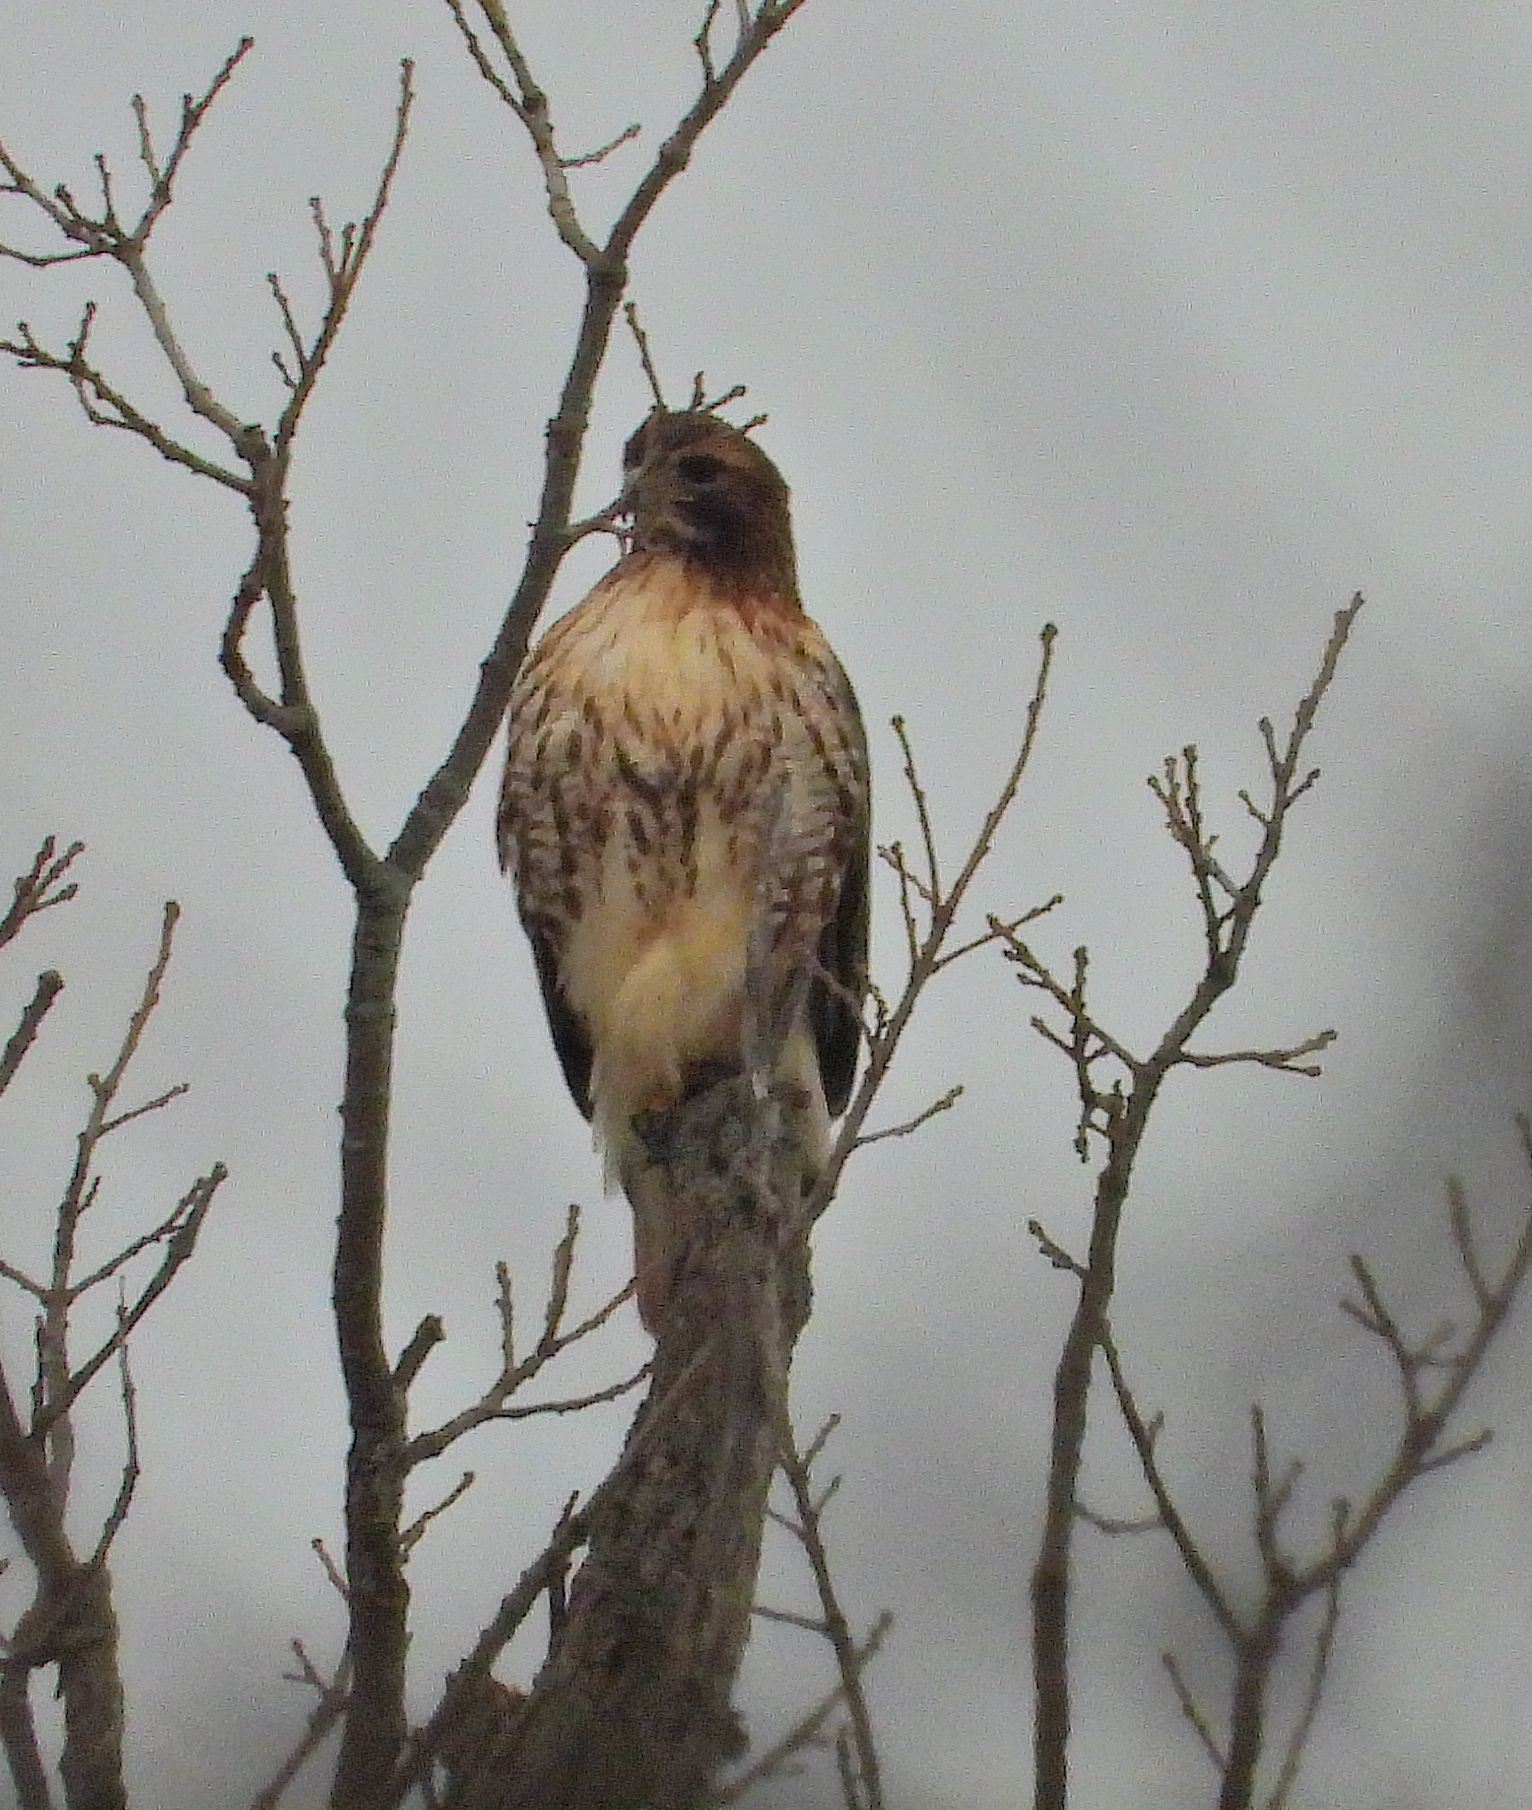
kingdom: Animalia
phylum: Chordata
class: Aves
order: Accipitriformes
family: Accipitridae
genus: Buteo
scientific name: Buteo jamaicensis
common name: Red-tailed hawk
